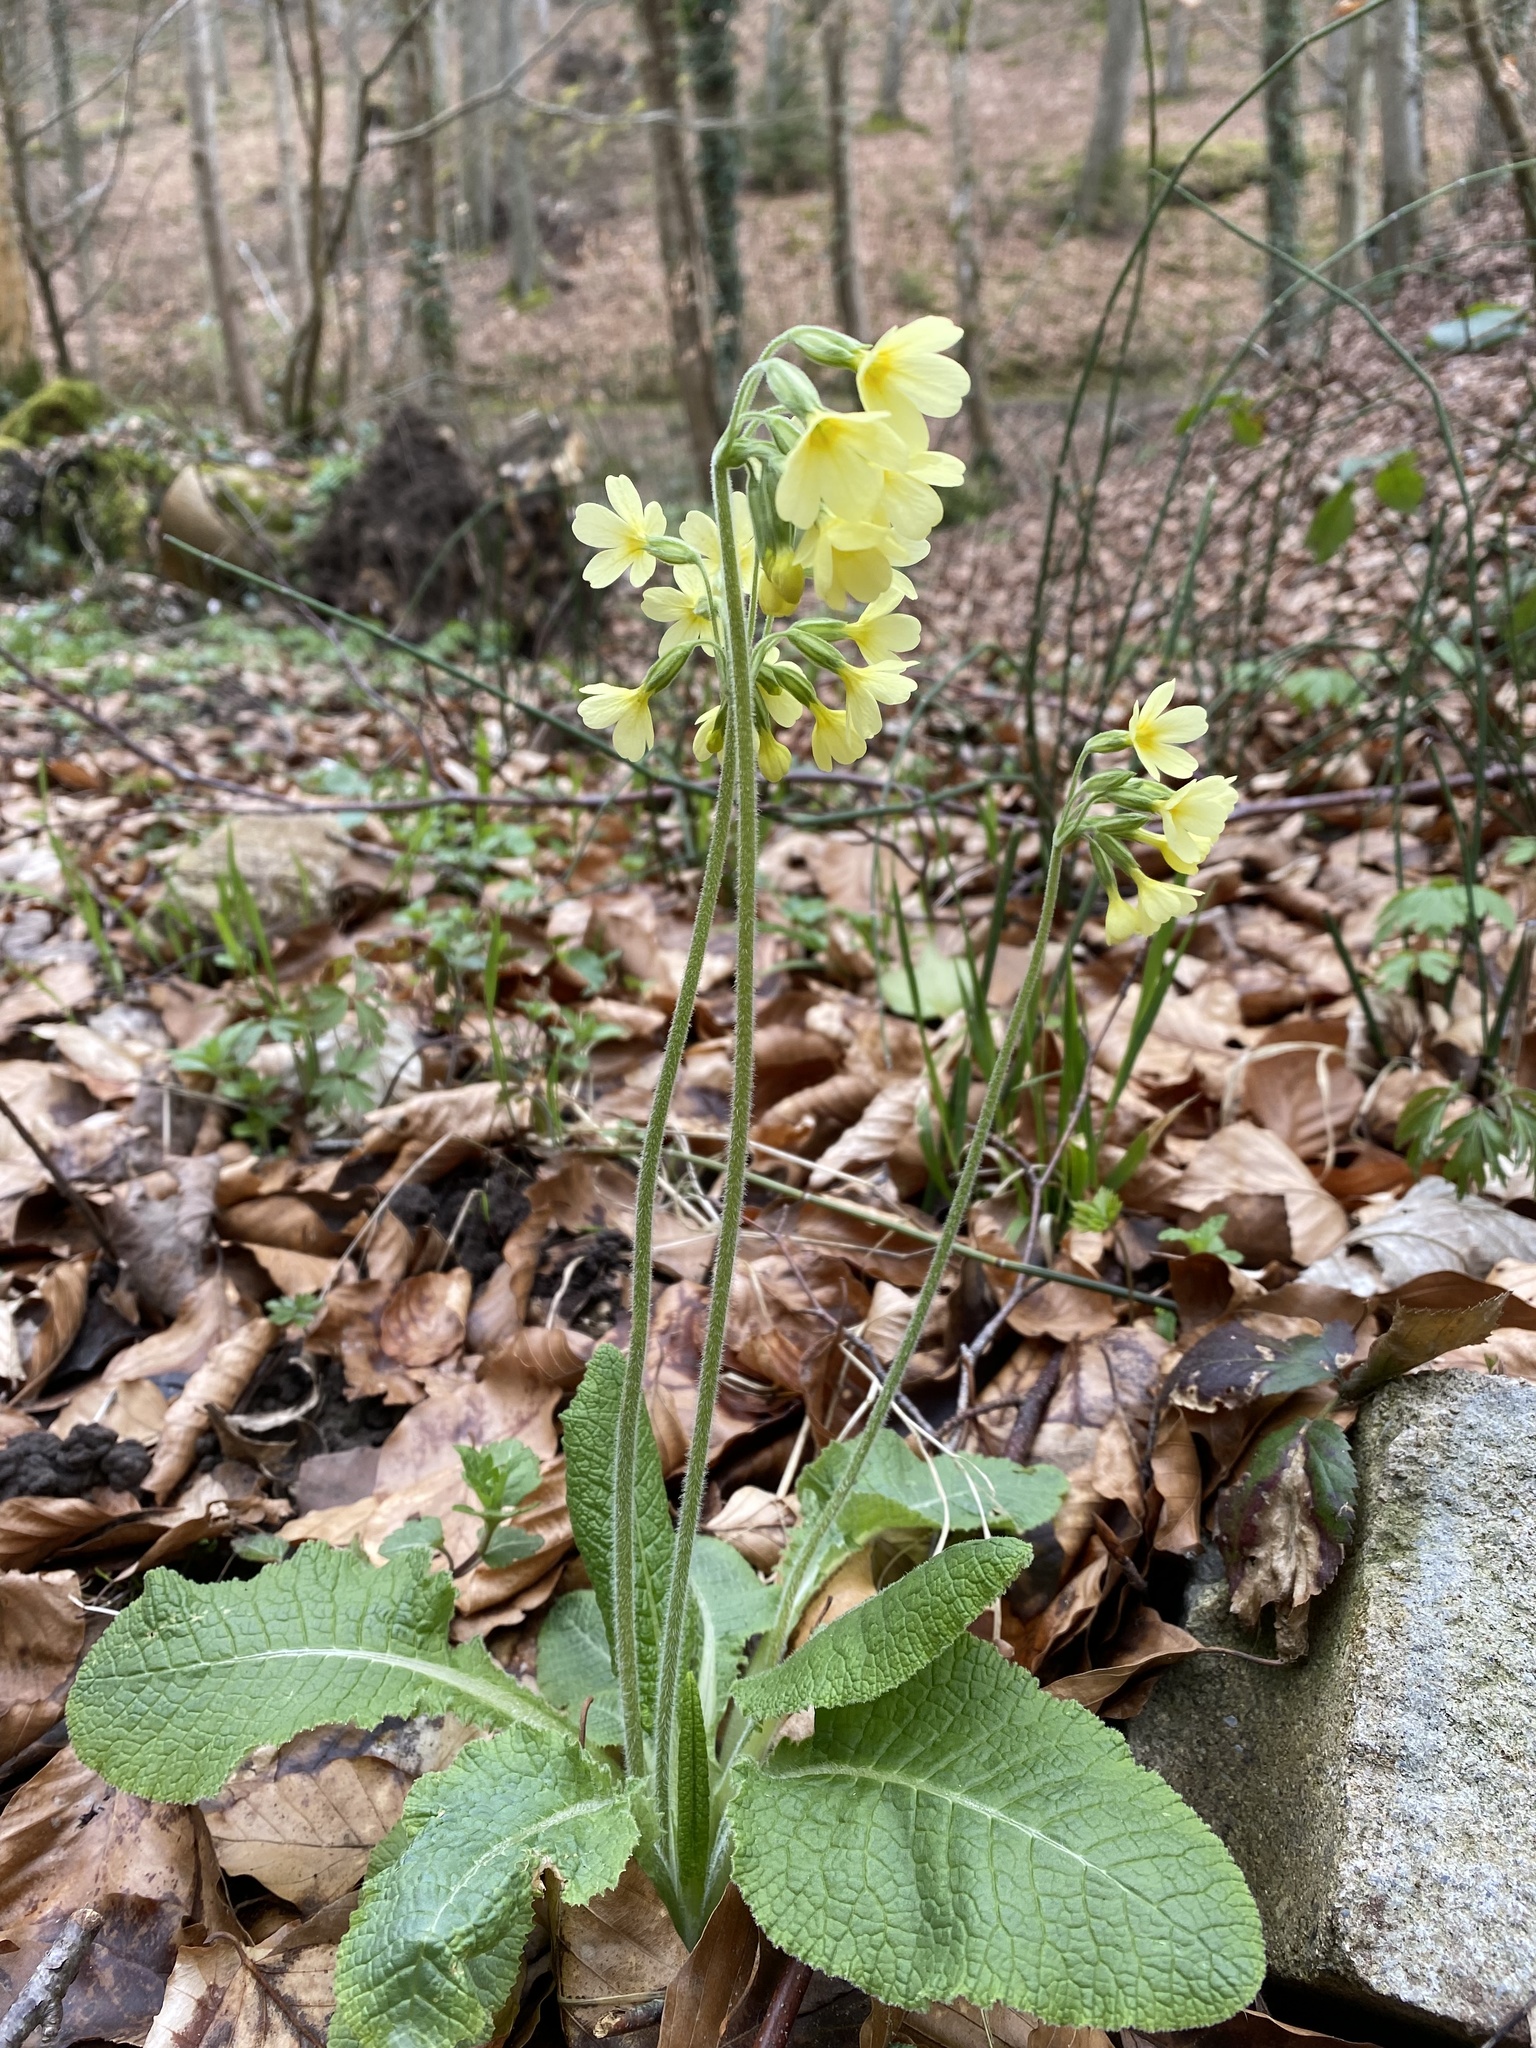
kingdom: Plantae
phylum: Tracheophyta
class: Magnoliopsida
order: Ericales
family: Primulaceae
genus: Primula
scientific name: Primula elatior
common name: Oxlip
